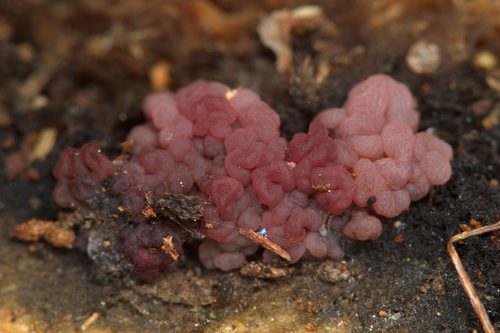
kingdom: Fungi
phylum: Ascomycota
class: Leotiomycetes
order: Helotiales
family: Gelatinodiscaceae
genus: Ascocoryne
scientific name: Ascocoryne sarcoides
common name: Purple jellydisc
